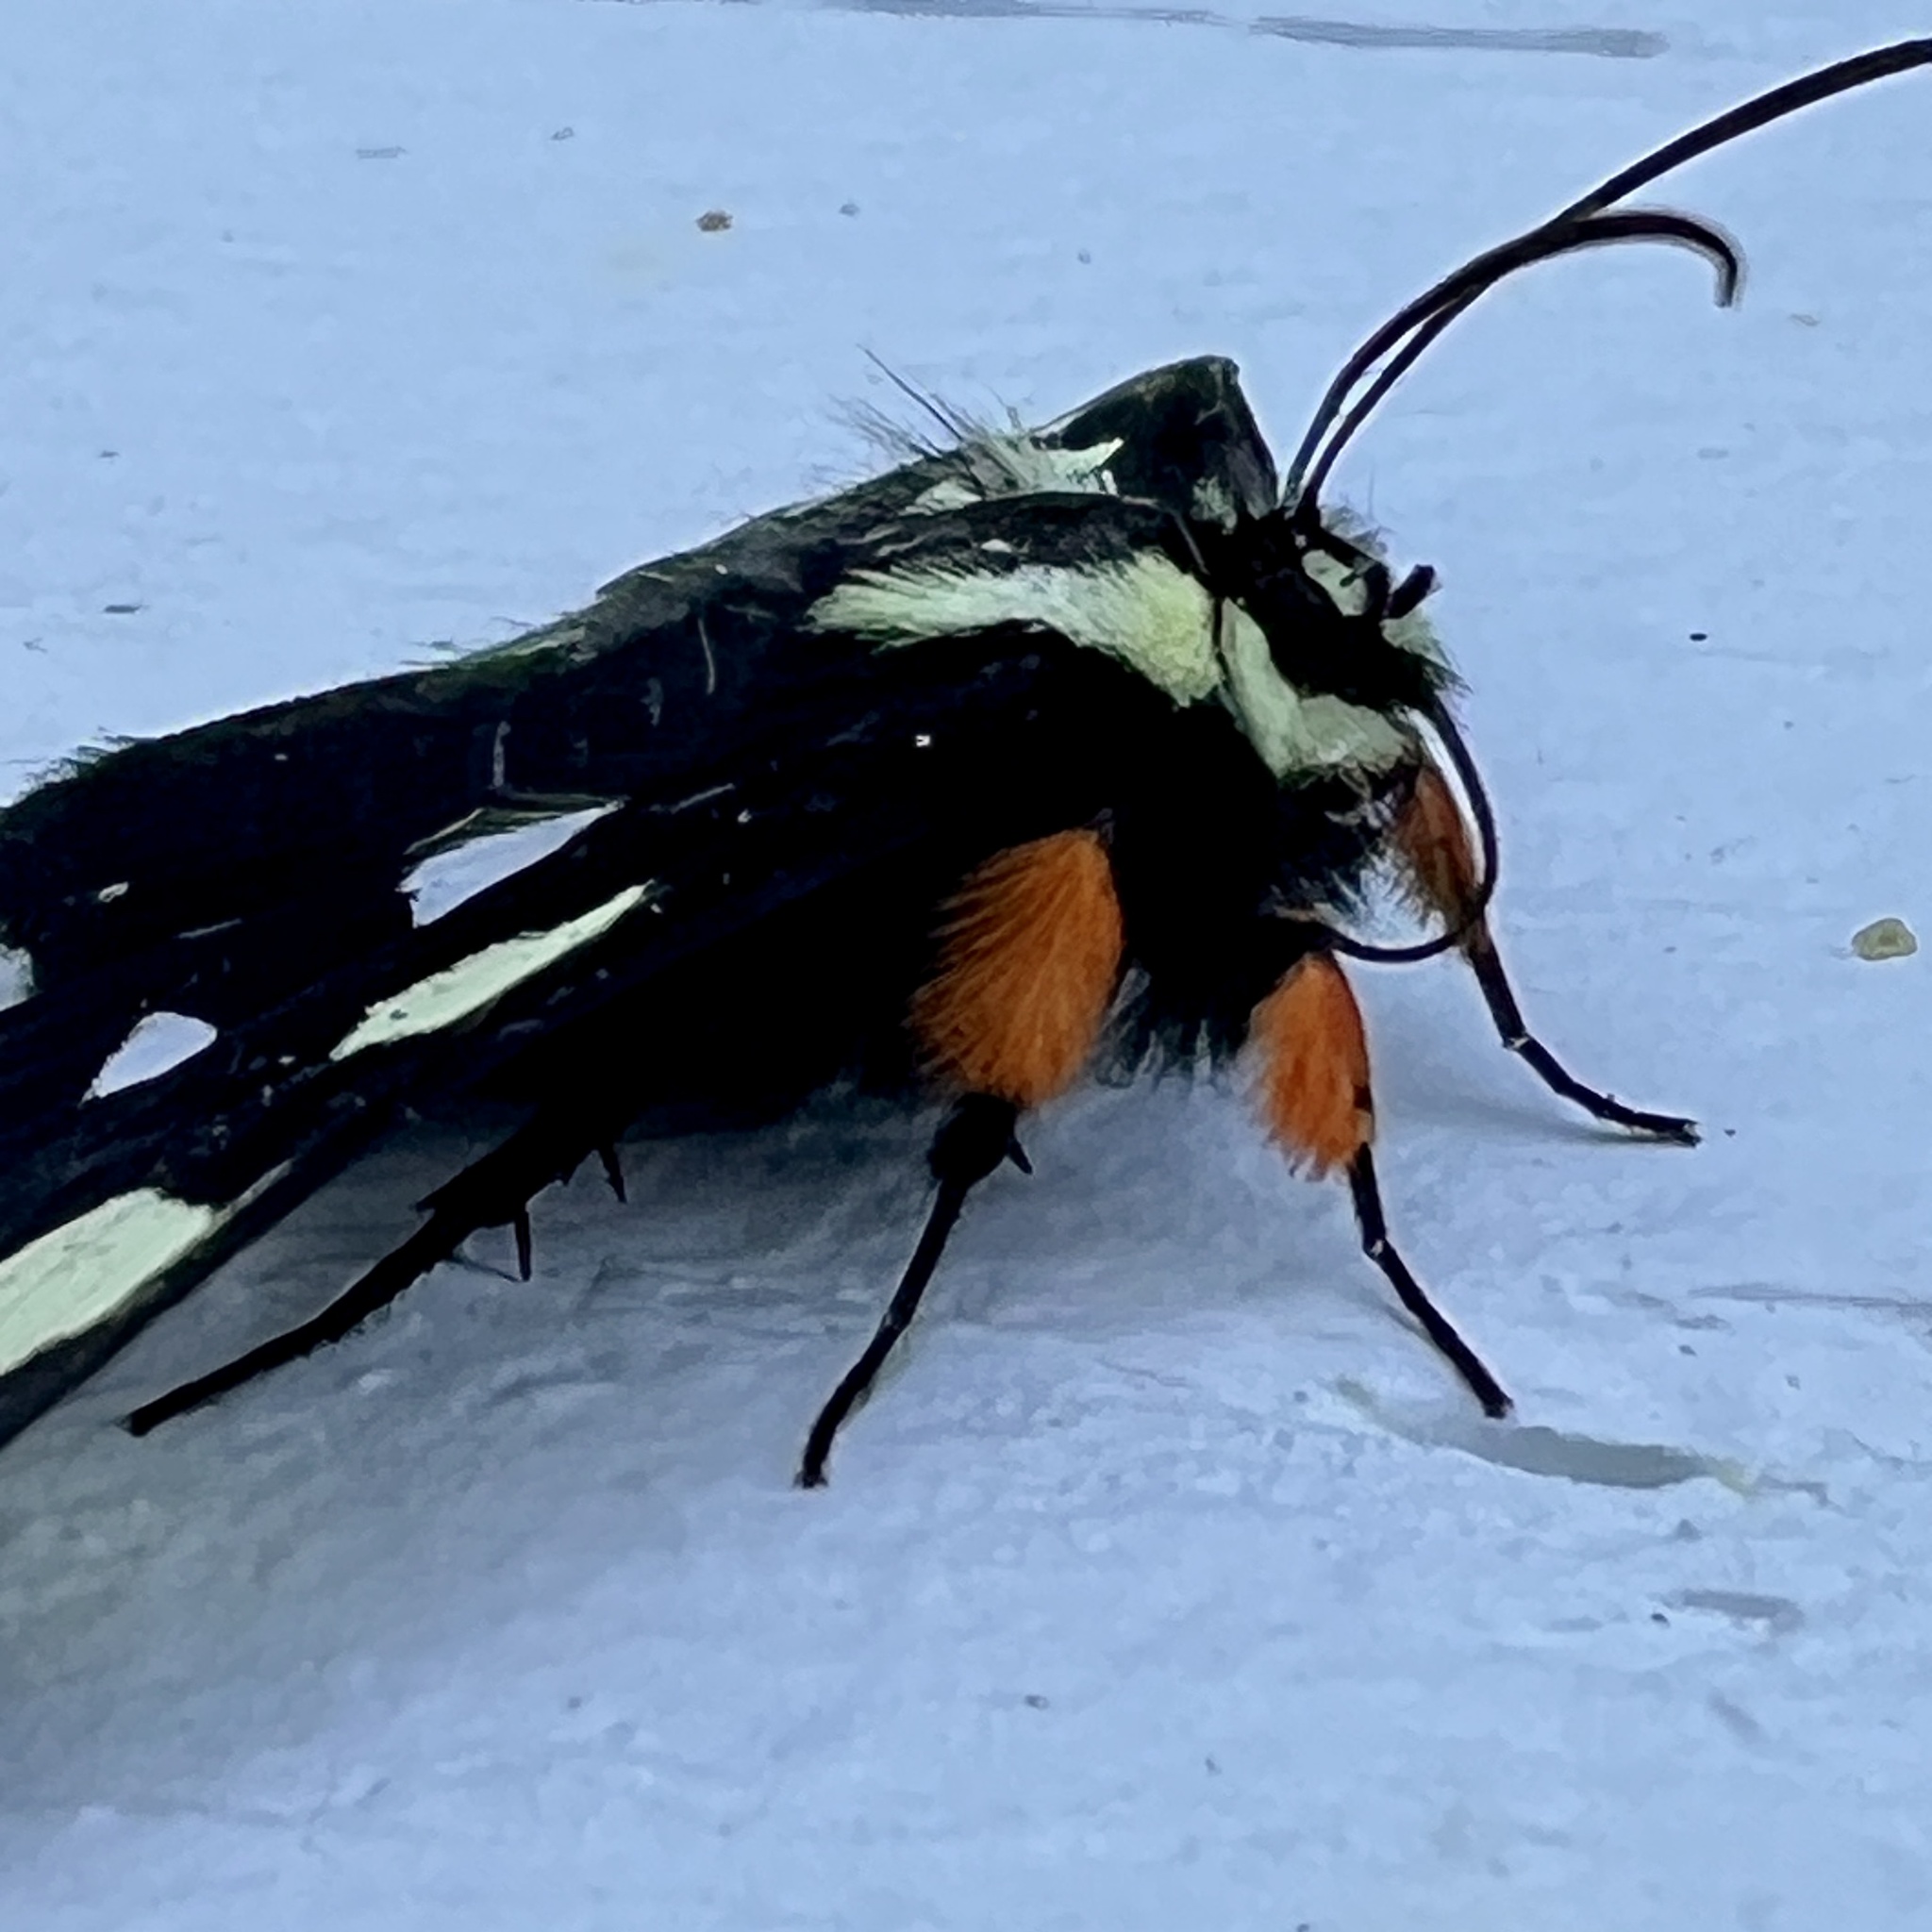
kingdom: Animalia
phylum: Arthropoda
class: Insecta
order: Lepidoptera
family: Noctuidae
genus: Alypia
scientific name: Alypia octomaculata
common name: Eight-spotted forester
